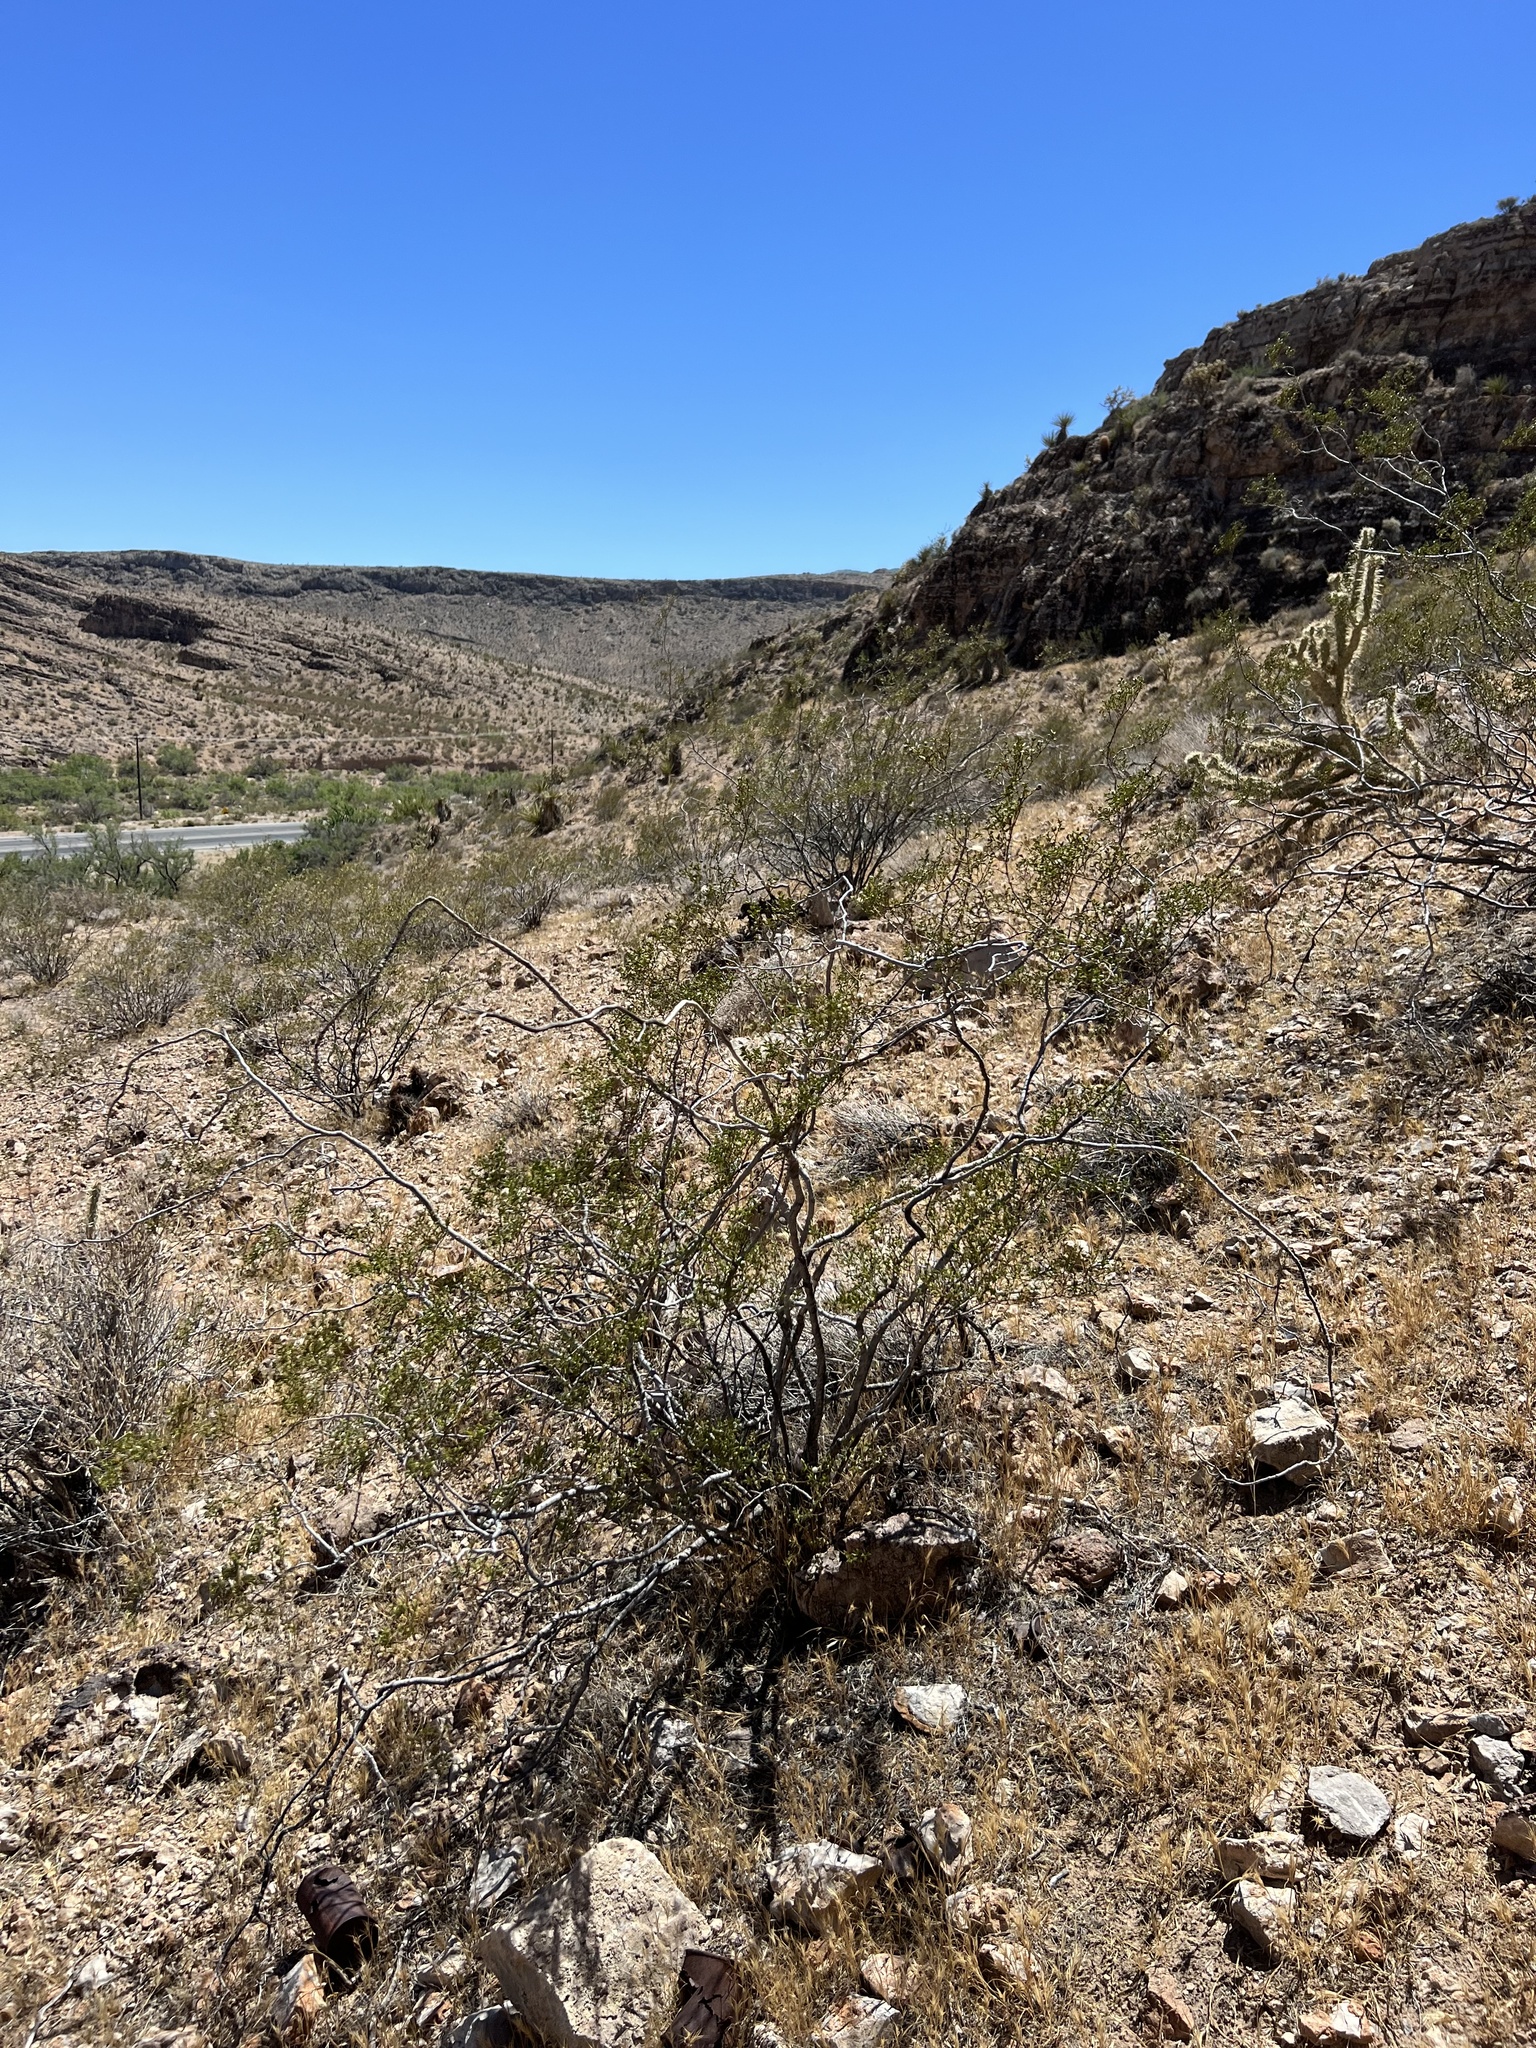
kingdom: Plantae
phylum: Tracheophyta
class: Magnoliopsida
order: Zygophyllales
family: Zygophyllaceae
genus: Larrea
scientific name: Larrea tridentata
